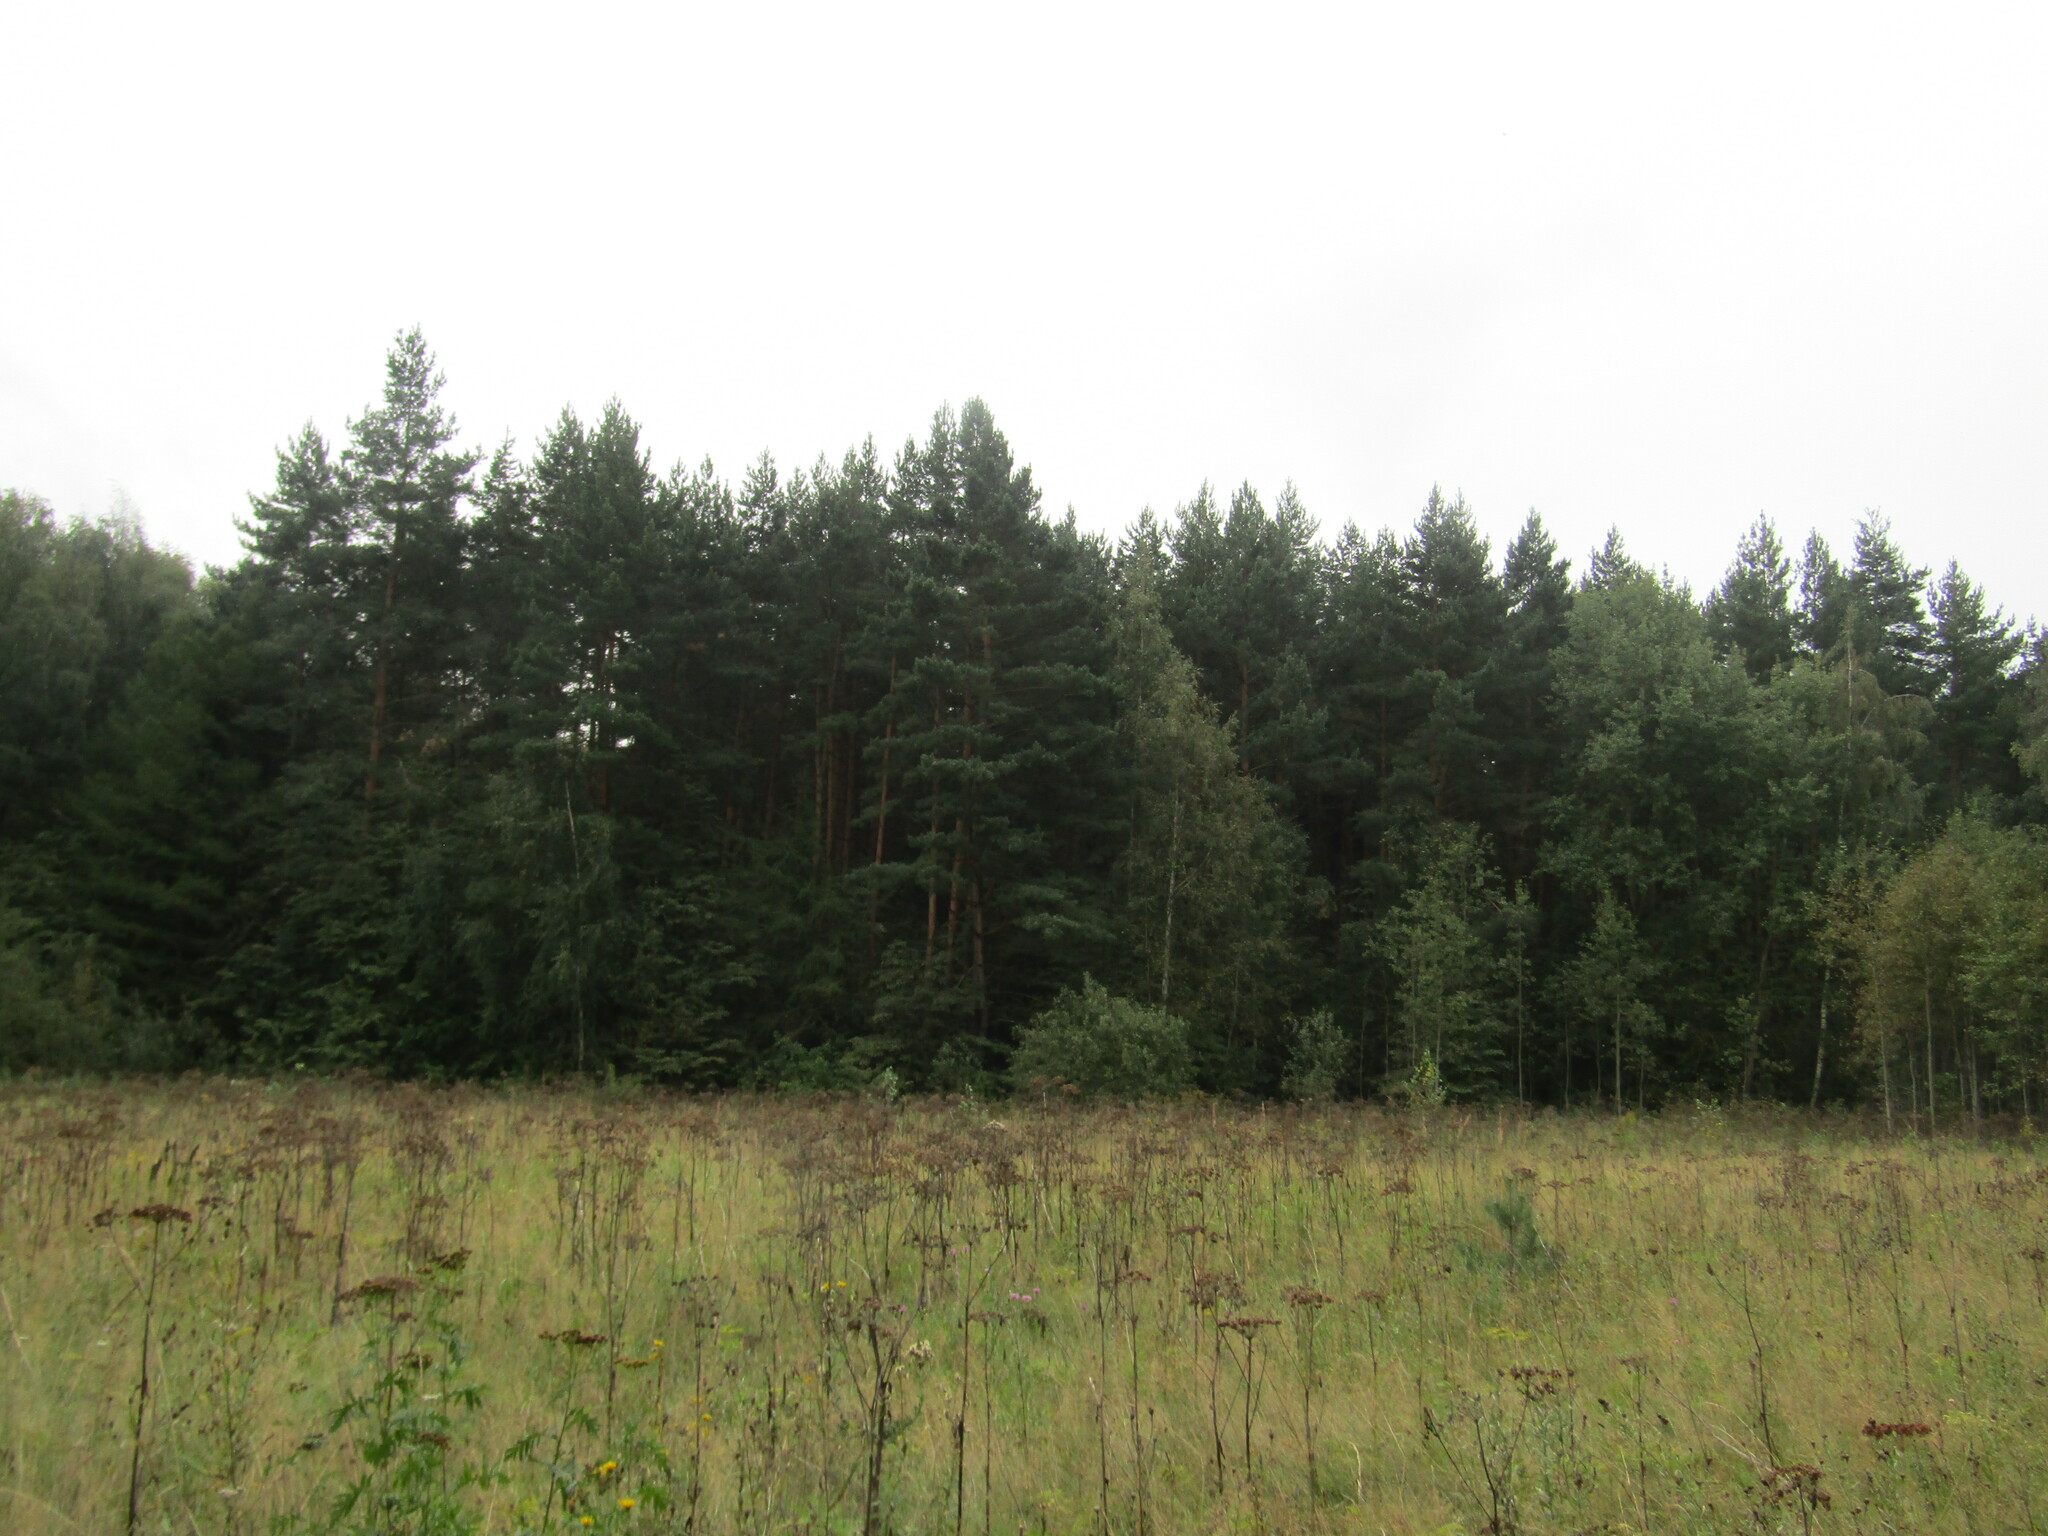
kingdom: Plantae
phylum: Tracheophyta
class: Pinopsida
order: Pinales
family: Pinaceae
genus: Pinus
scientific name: Pinus sylvestris
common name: Scots pine
